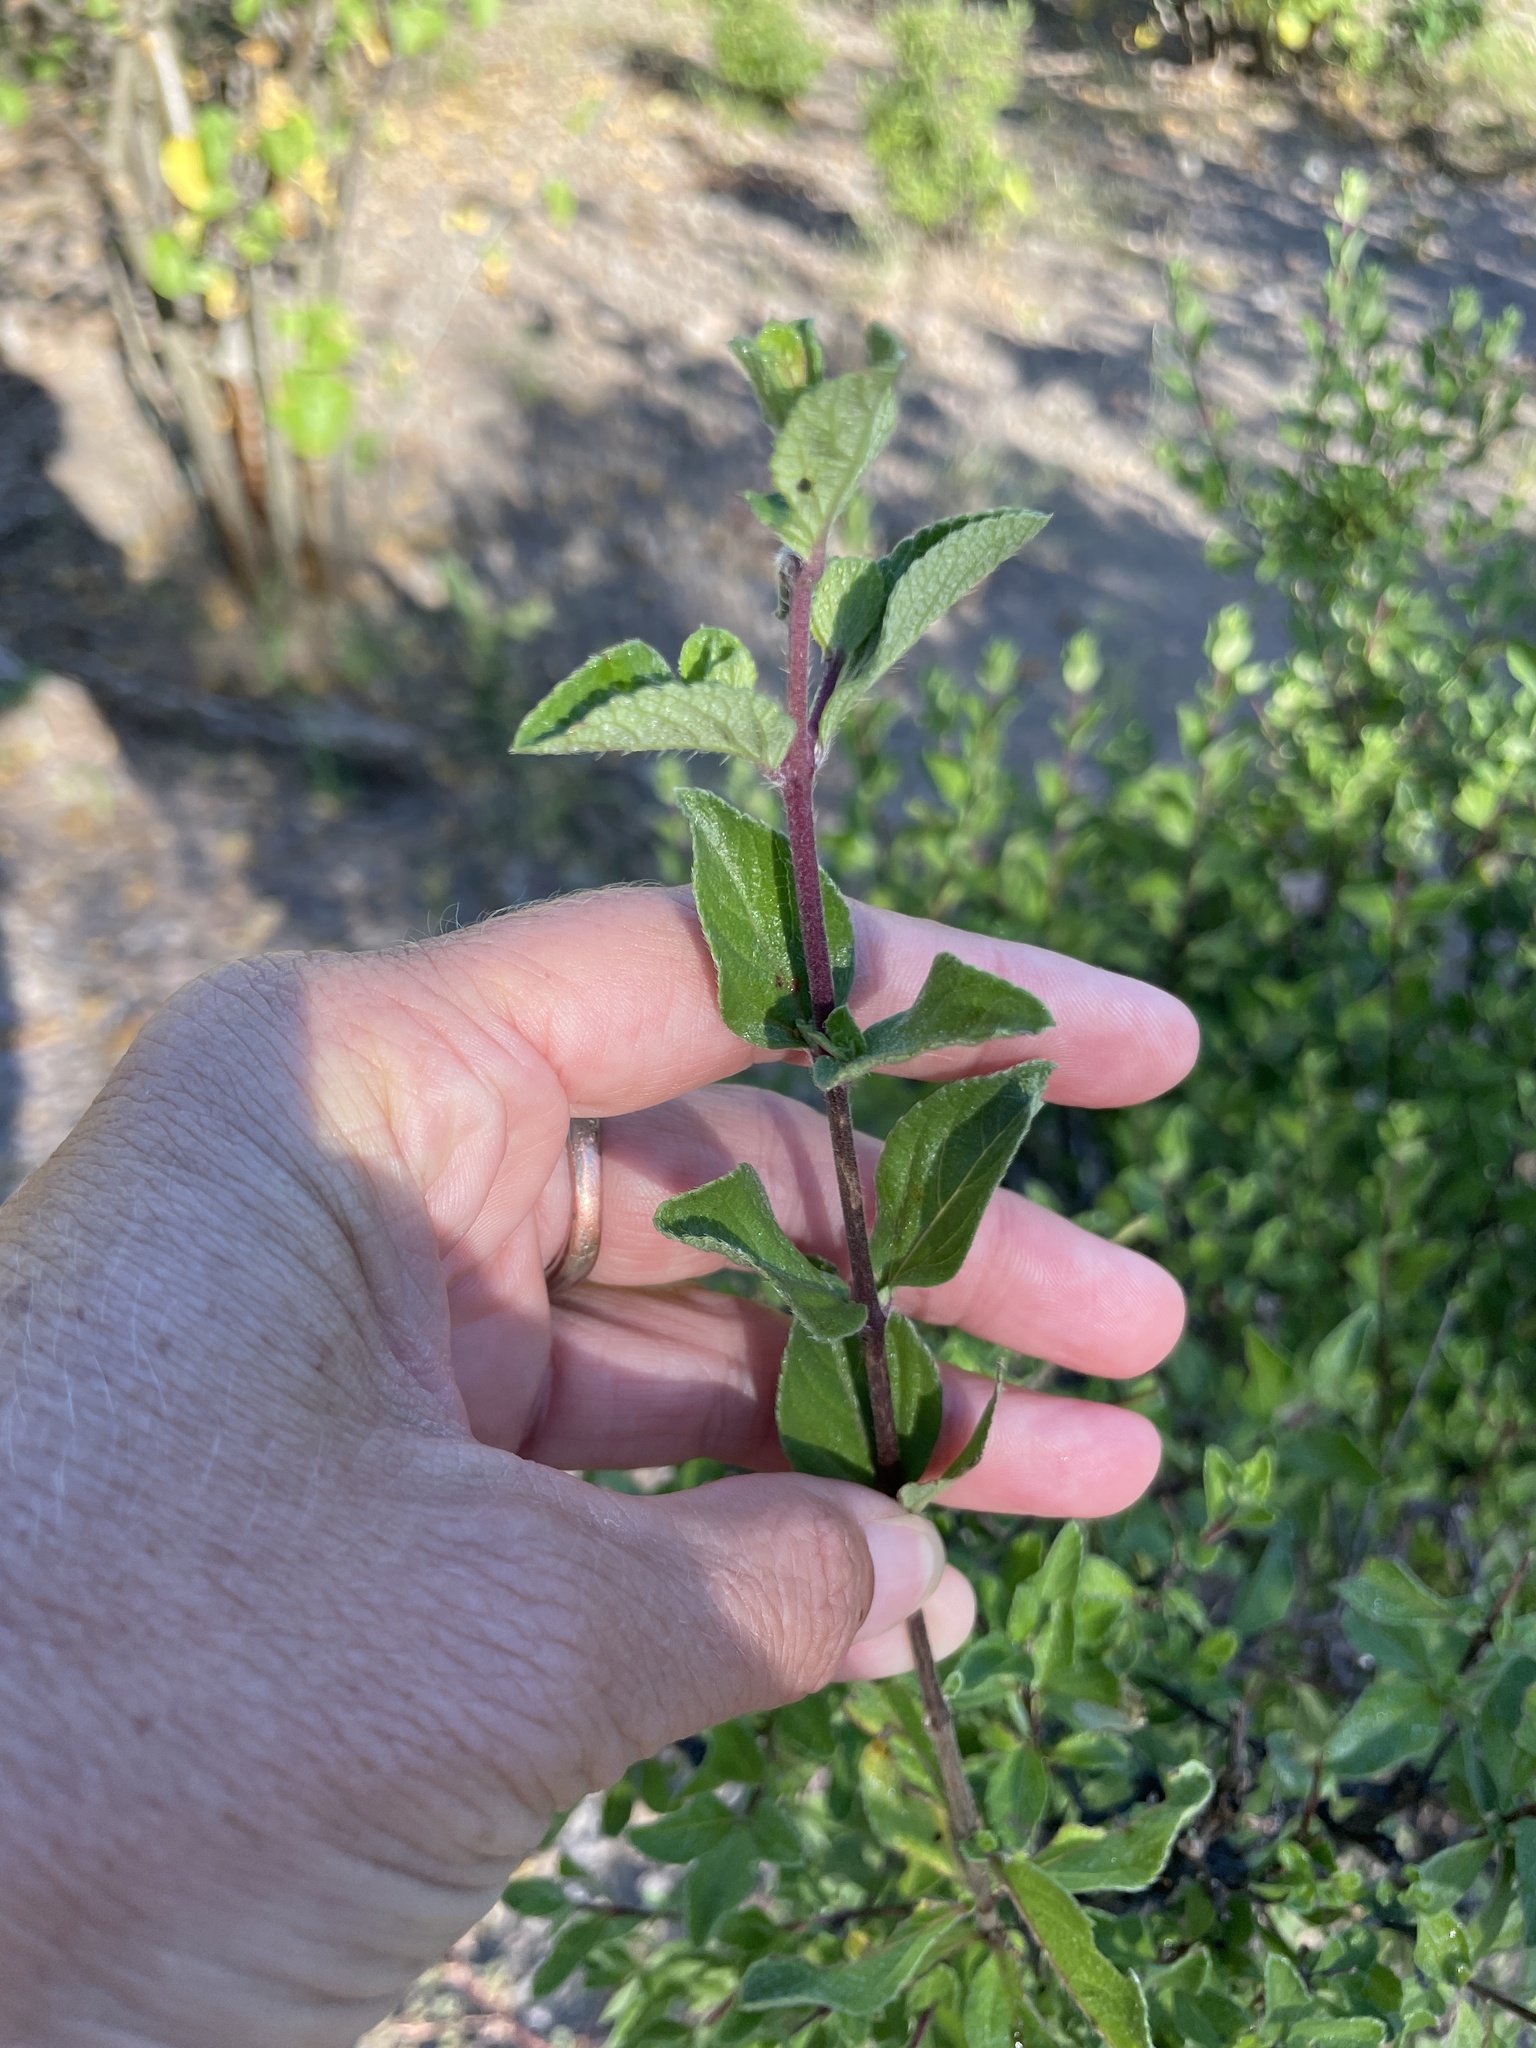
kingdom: Plantae
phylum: Tracheophyta
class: Magnoliopsida
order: Lamiales
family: Verbenaceae
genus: Lippia
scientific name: Lippia alba
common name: Bushy matgrass
